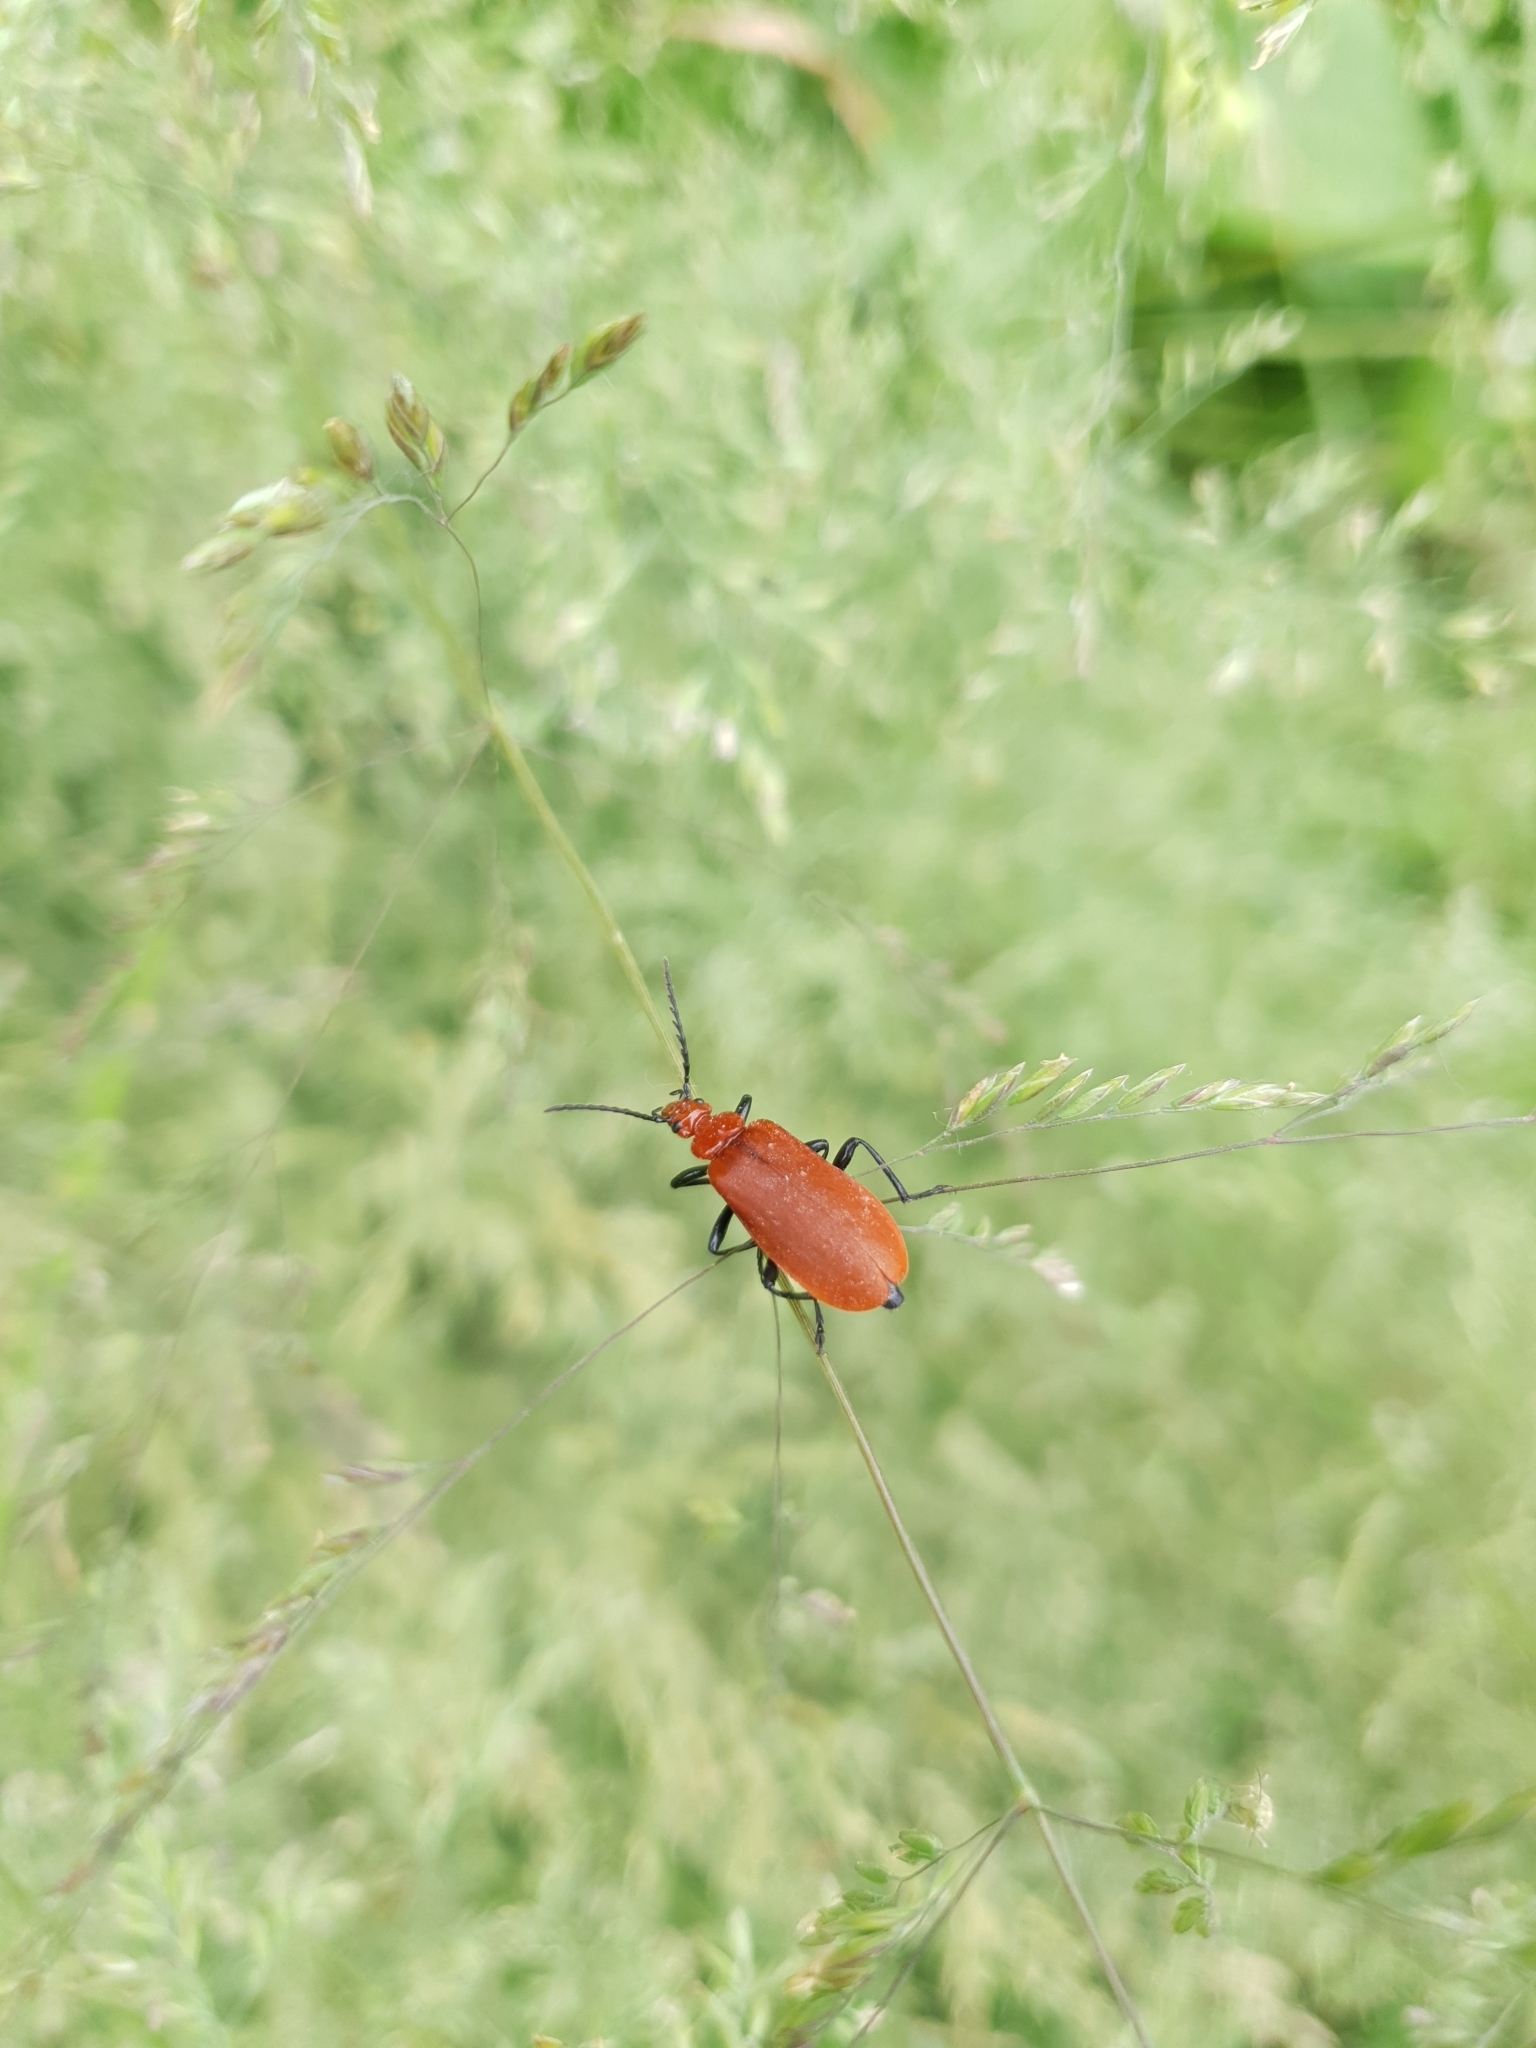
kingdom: Animalia
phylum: Arthropoda
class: Insecta
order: Coleoptera
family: Pyrochroidae
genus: Pyrochroa
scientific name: Pyrochroa serraticornis
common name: Red-headed cardinal beetle
